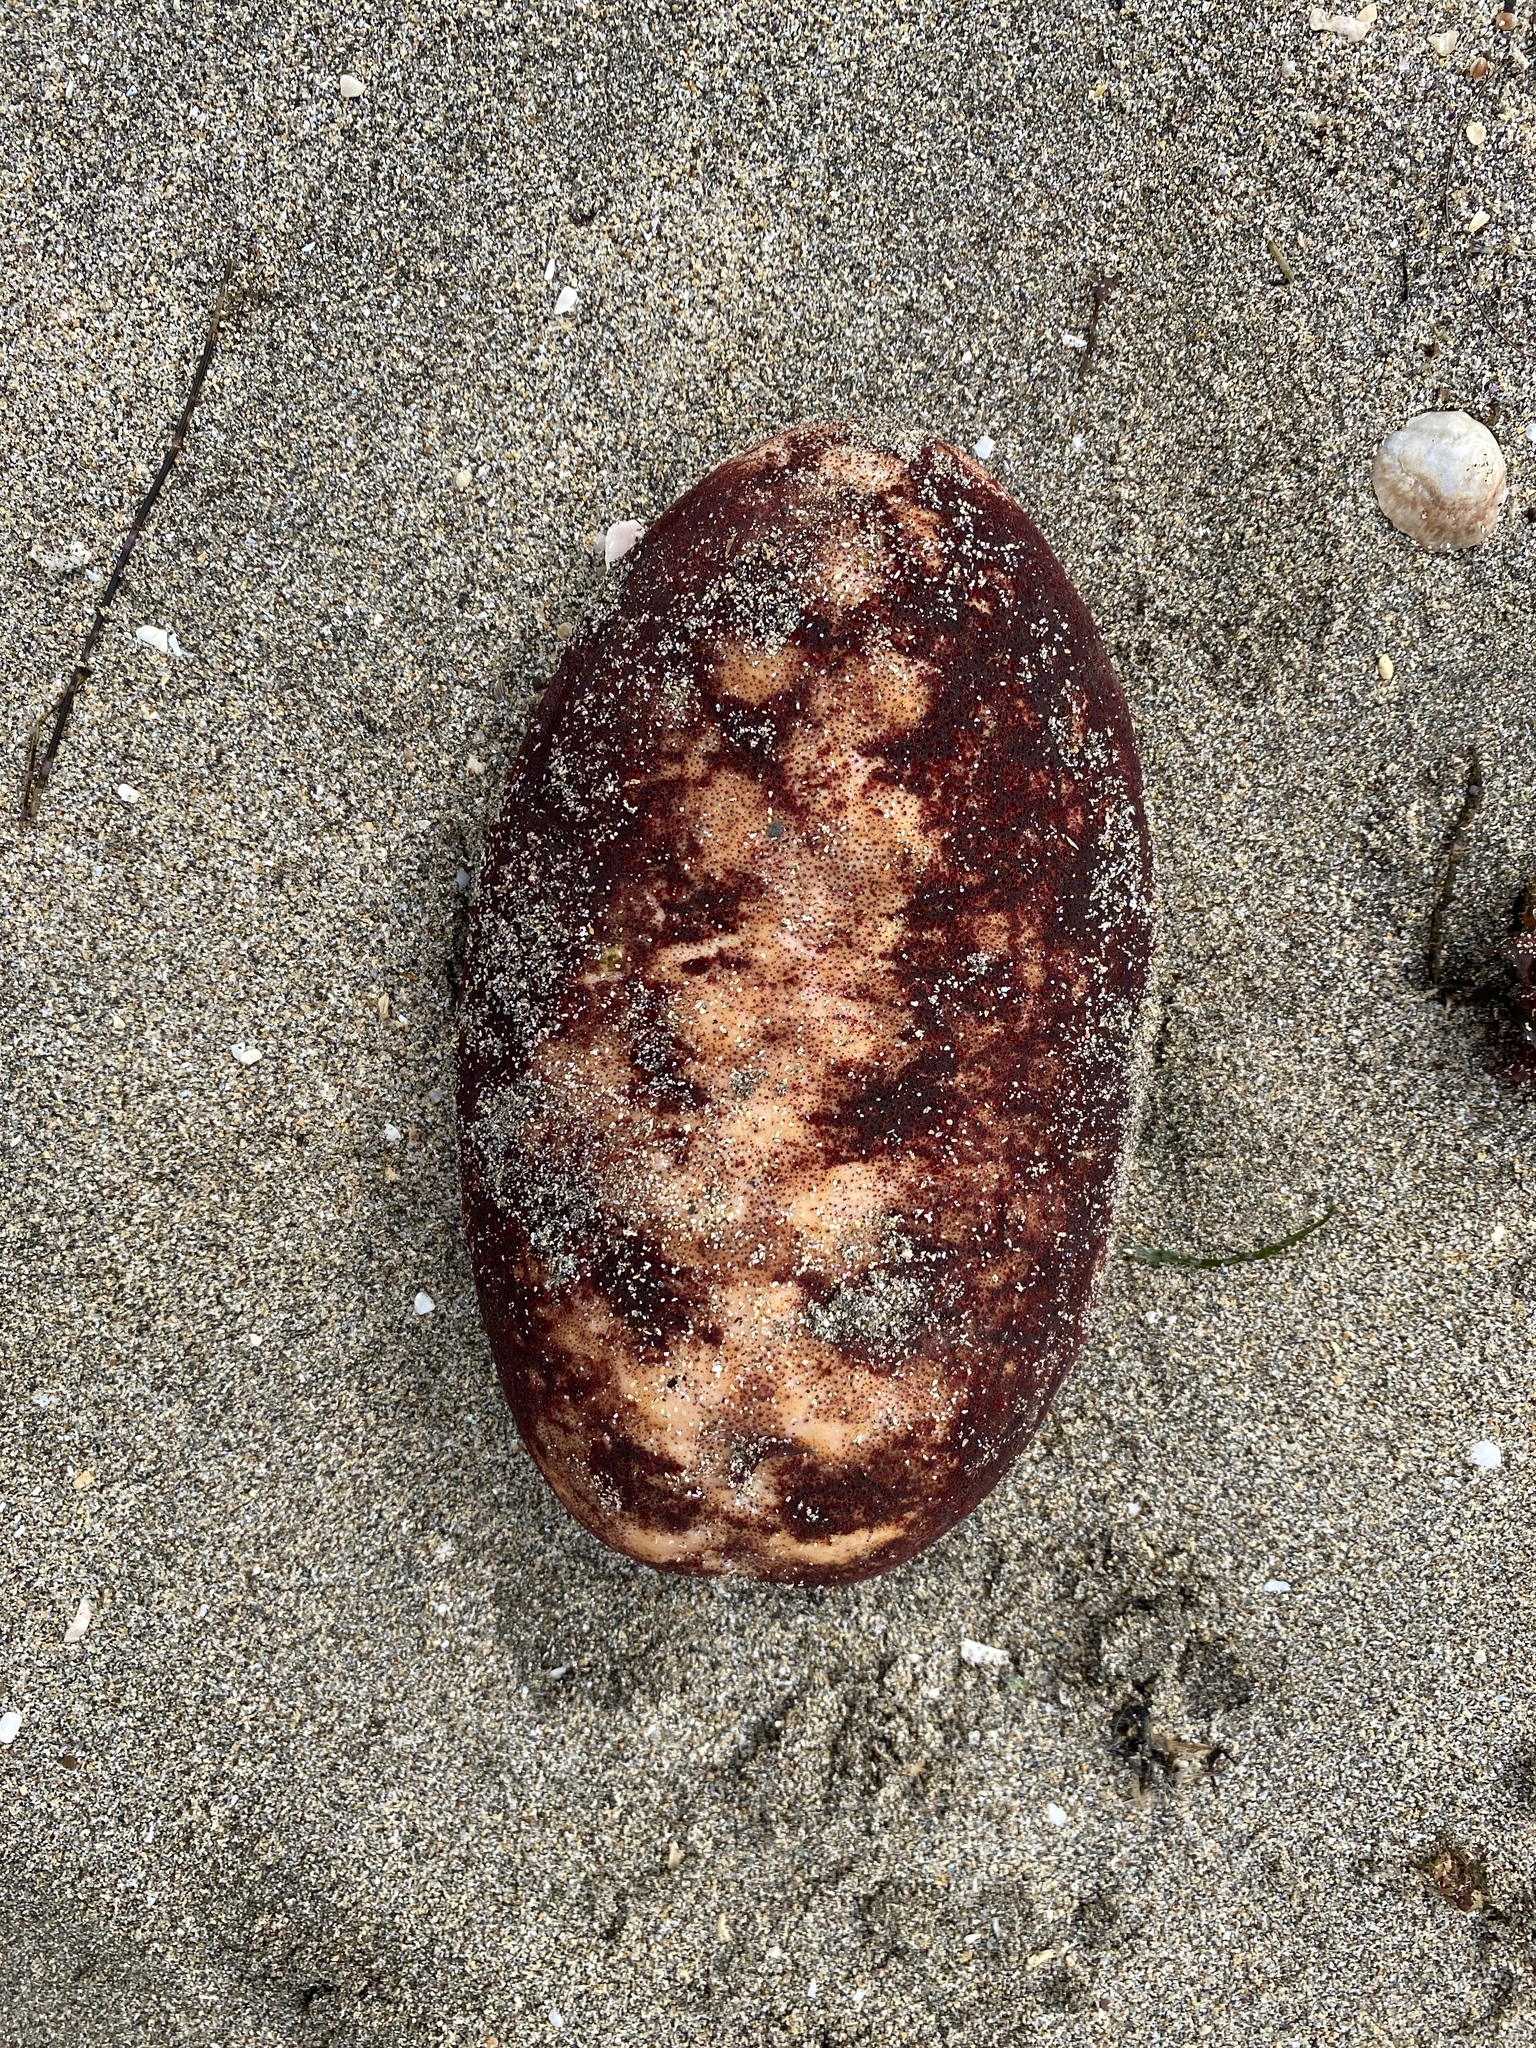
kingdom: Animalia
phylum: Mollusca
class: Polyplacophora
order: Chitonida
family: Acanthochitonidae
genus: Cryptochiton
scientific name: Cryptochiton stelleri
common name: Giant pacific chiton
